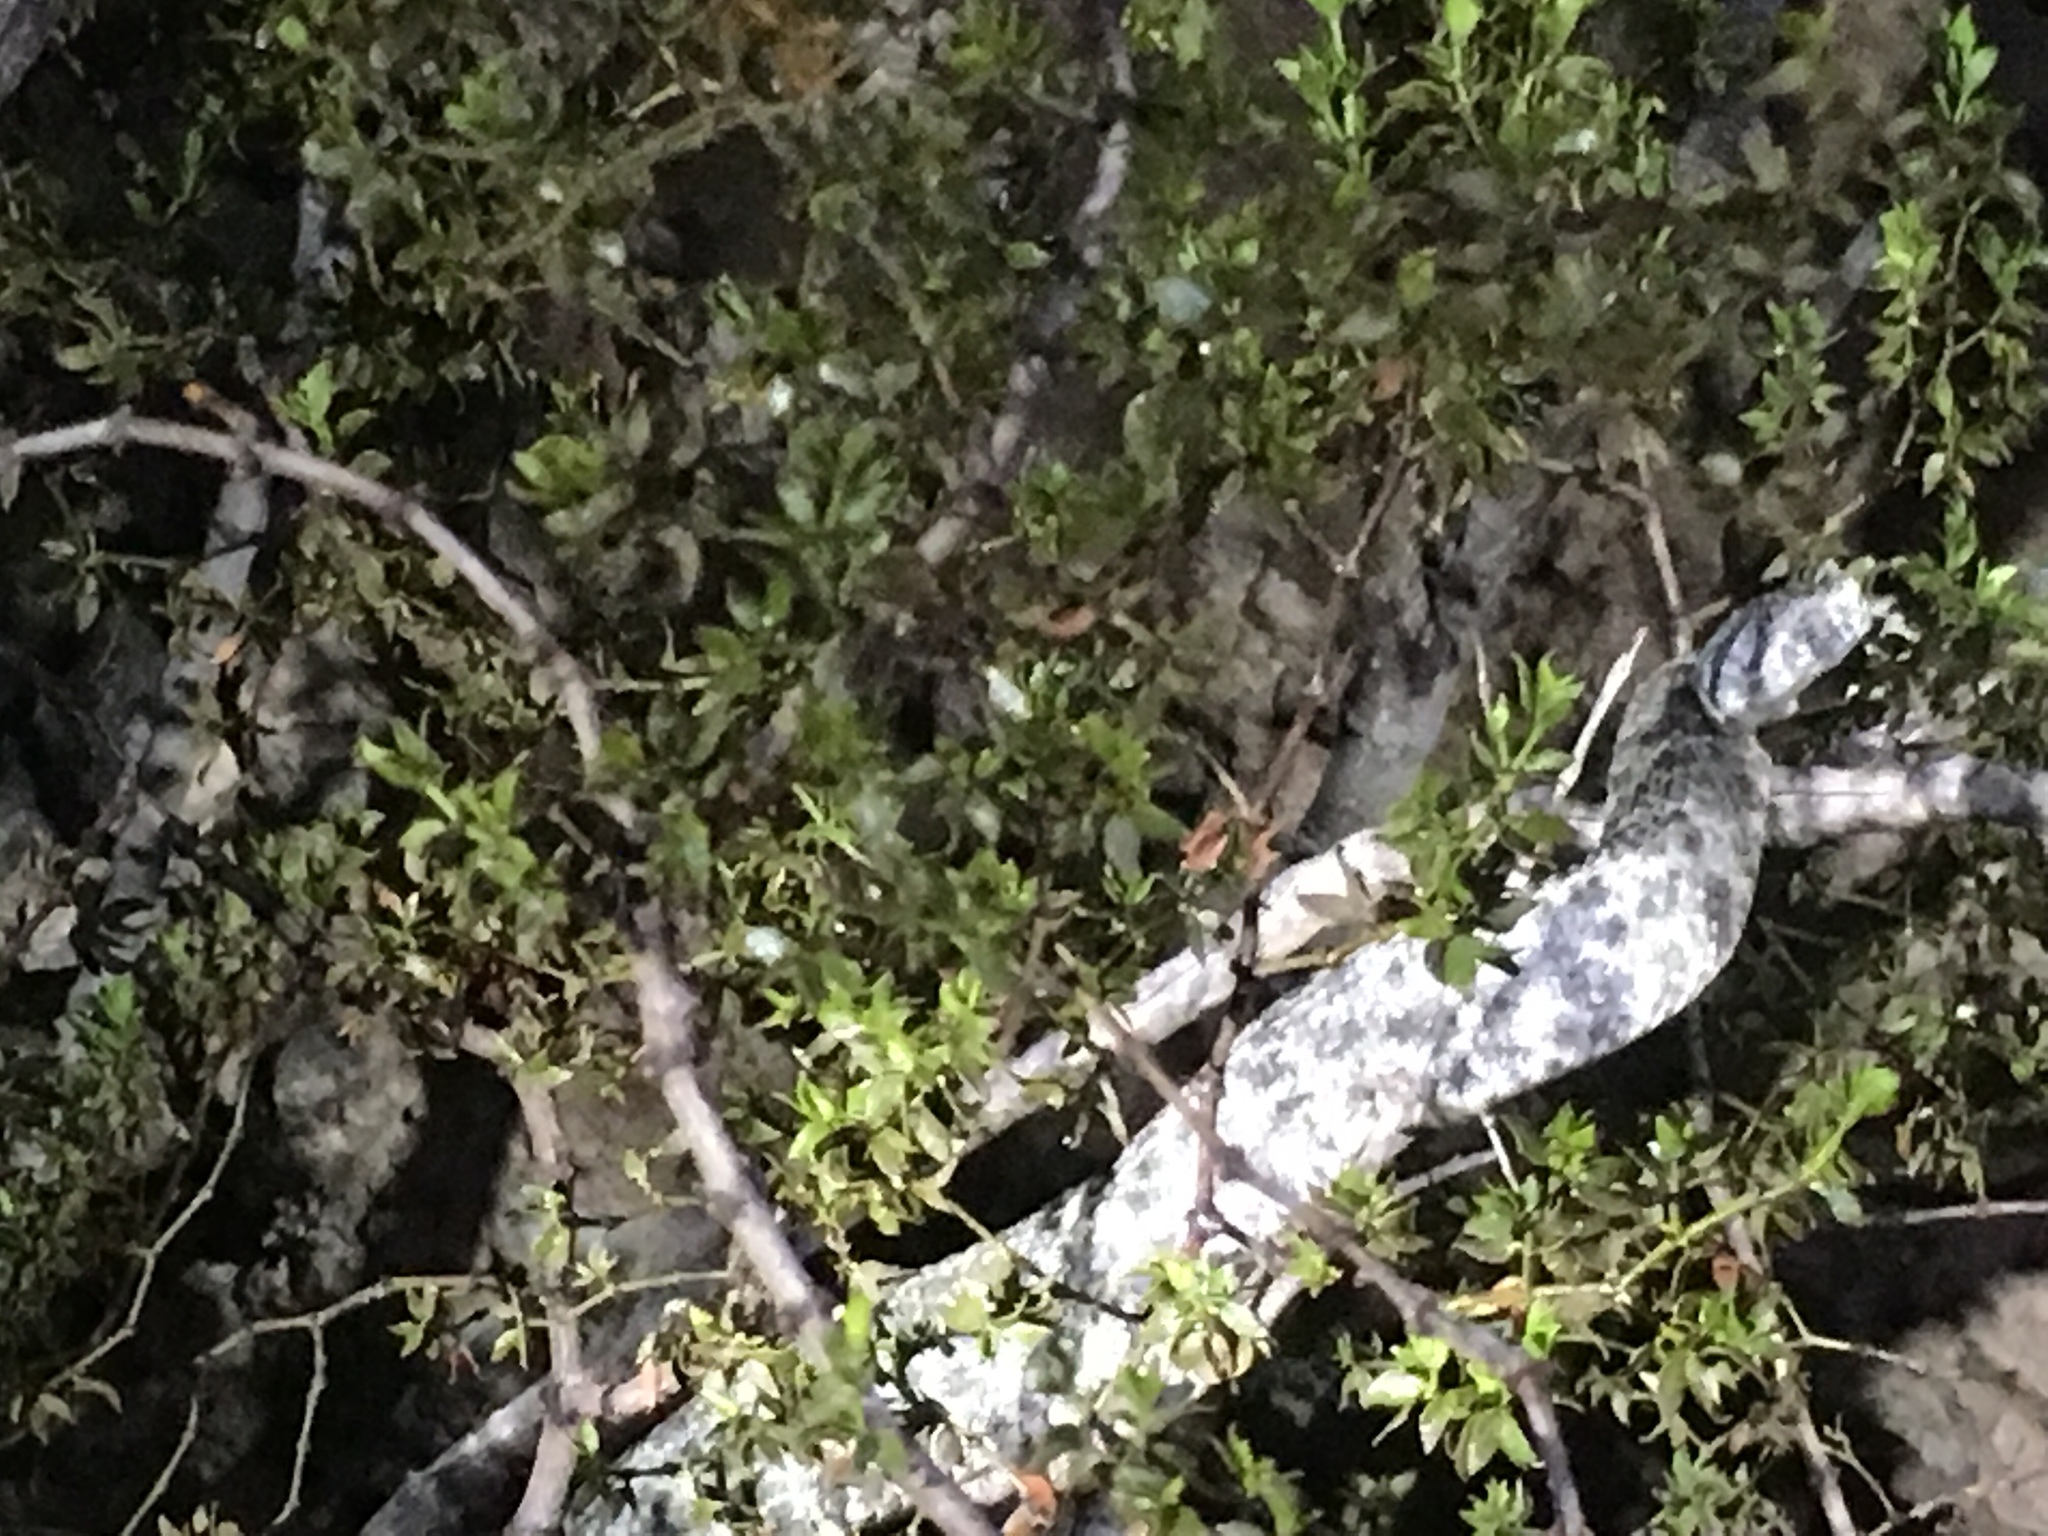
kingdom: Animalia
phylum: Chordata
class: Squamata
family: Viperidae
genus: Crotalus
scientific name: Crotalus pyrrhus
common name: Southwestern speckled rattlesnake
